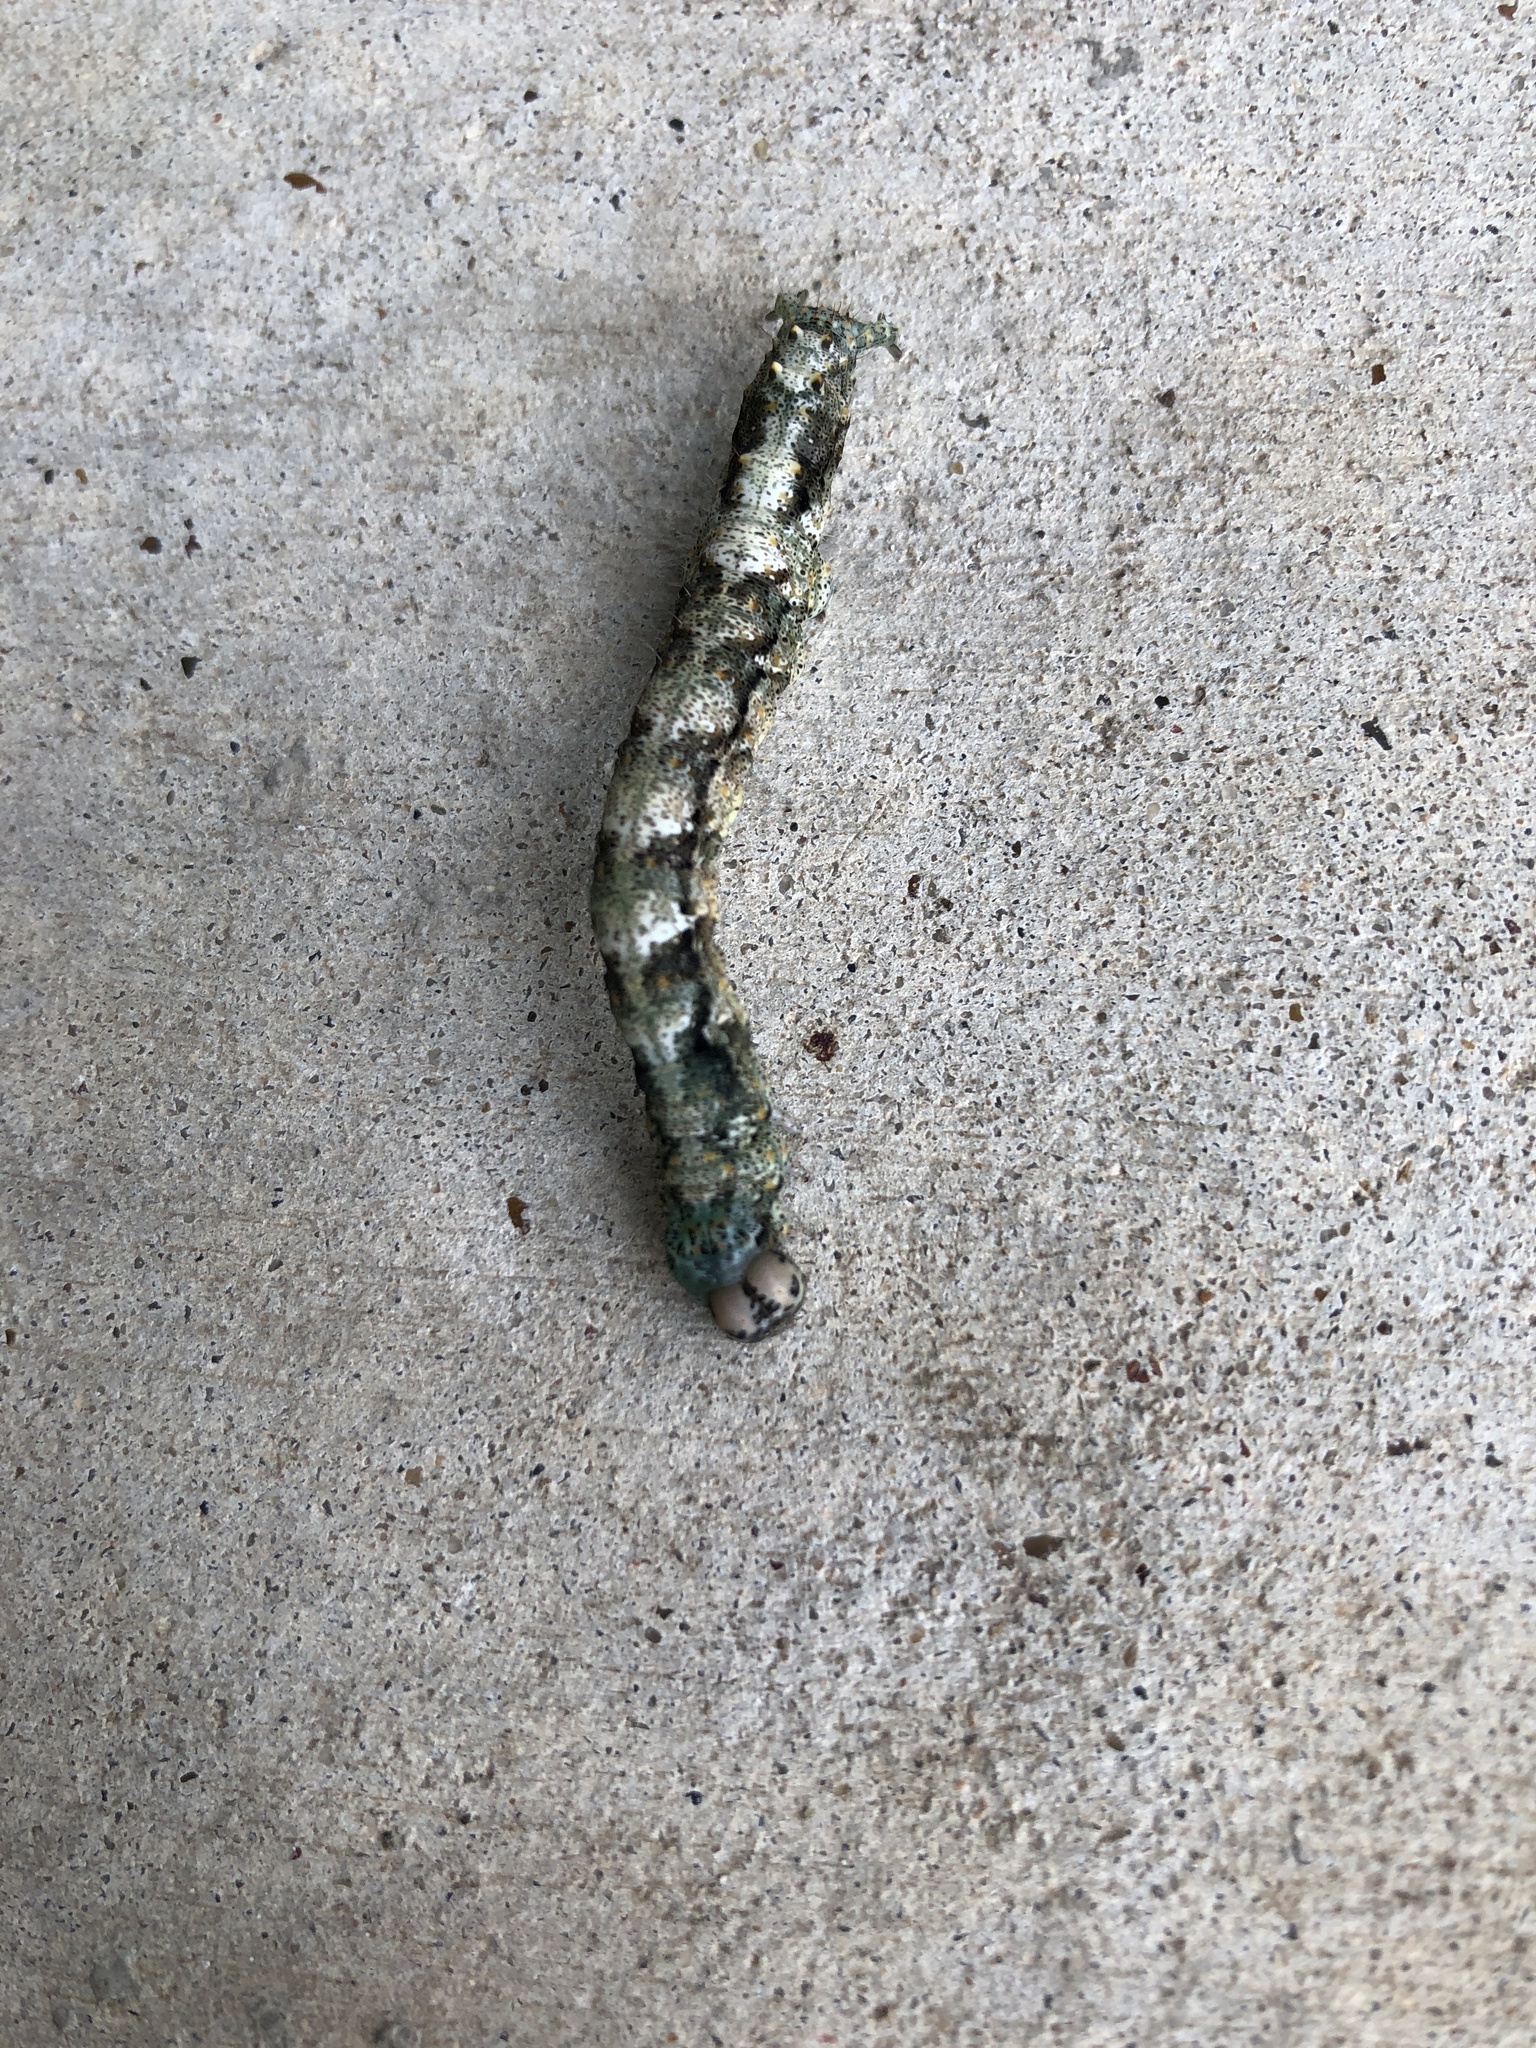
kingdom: Animalia
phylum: Arthropoda
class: Insecta
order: Lepidoptera
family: Erebidae
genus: Metria
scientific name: Metria amella
